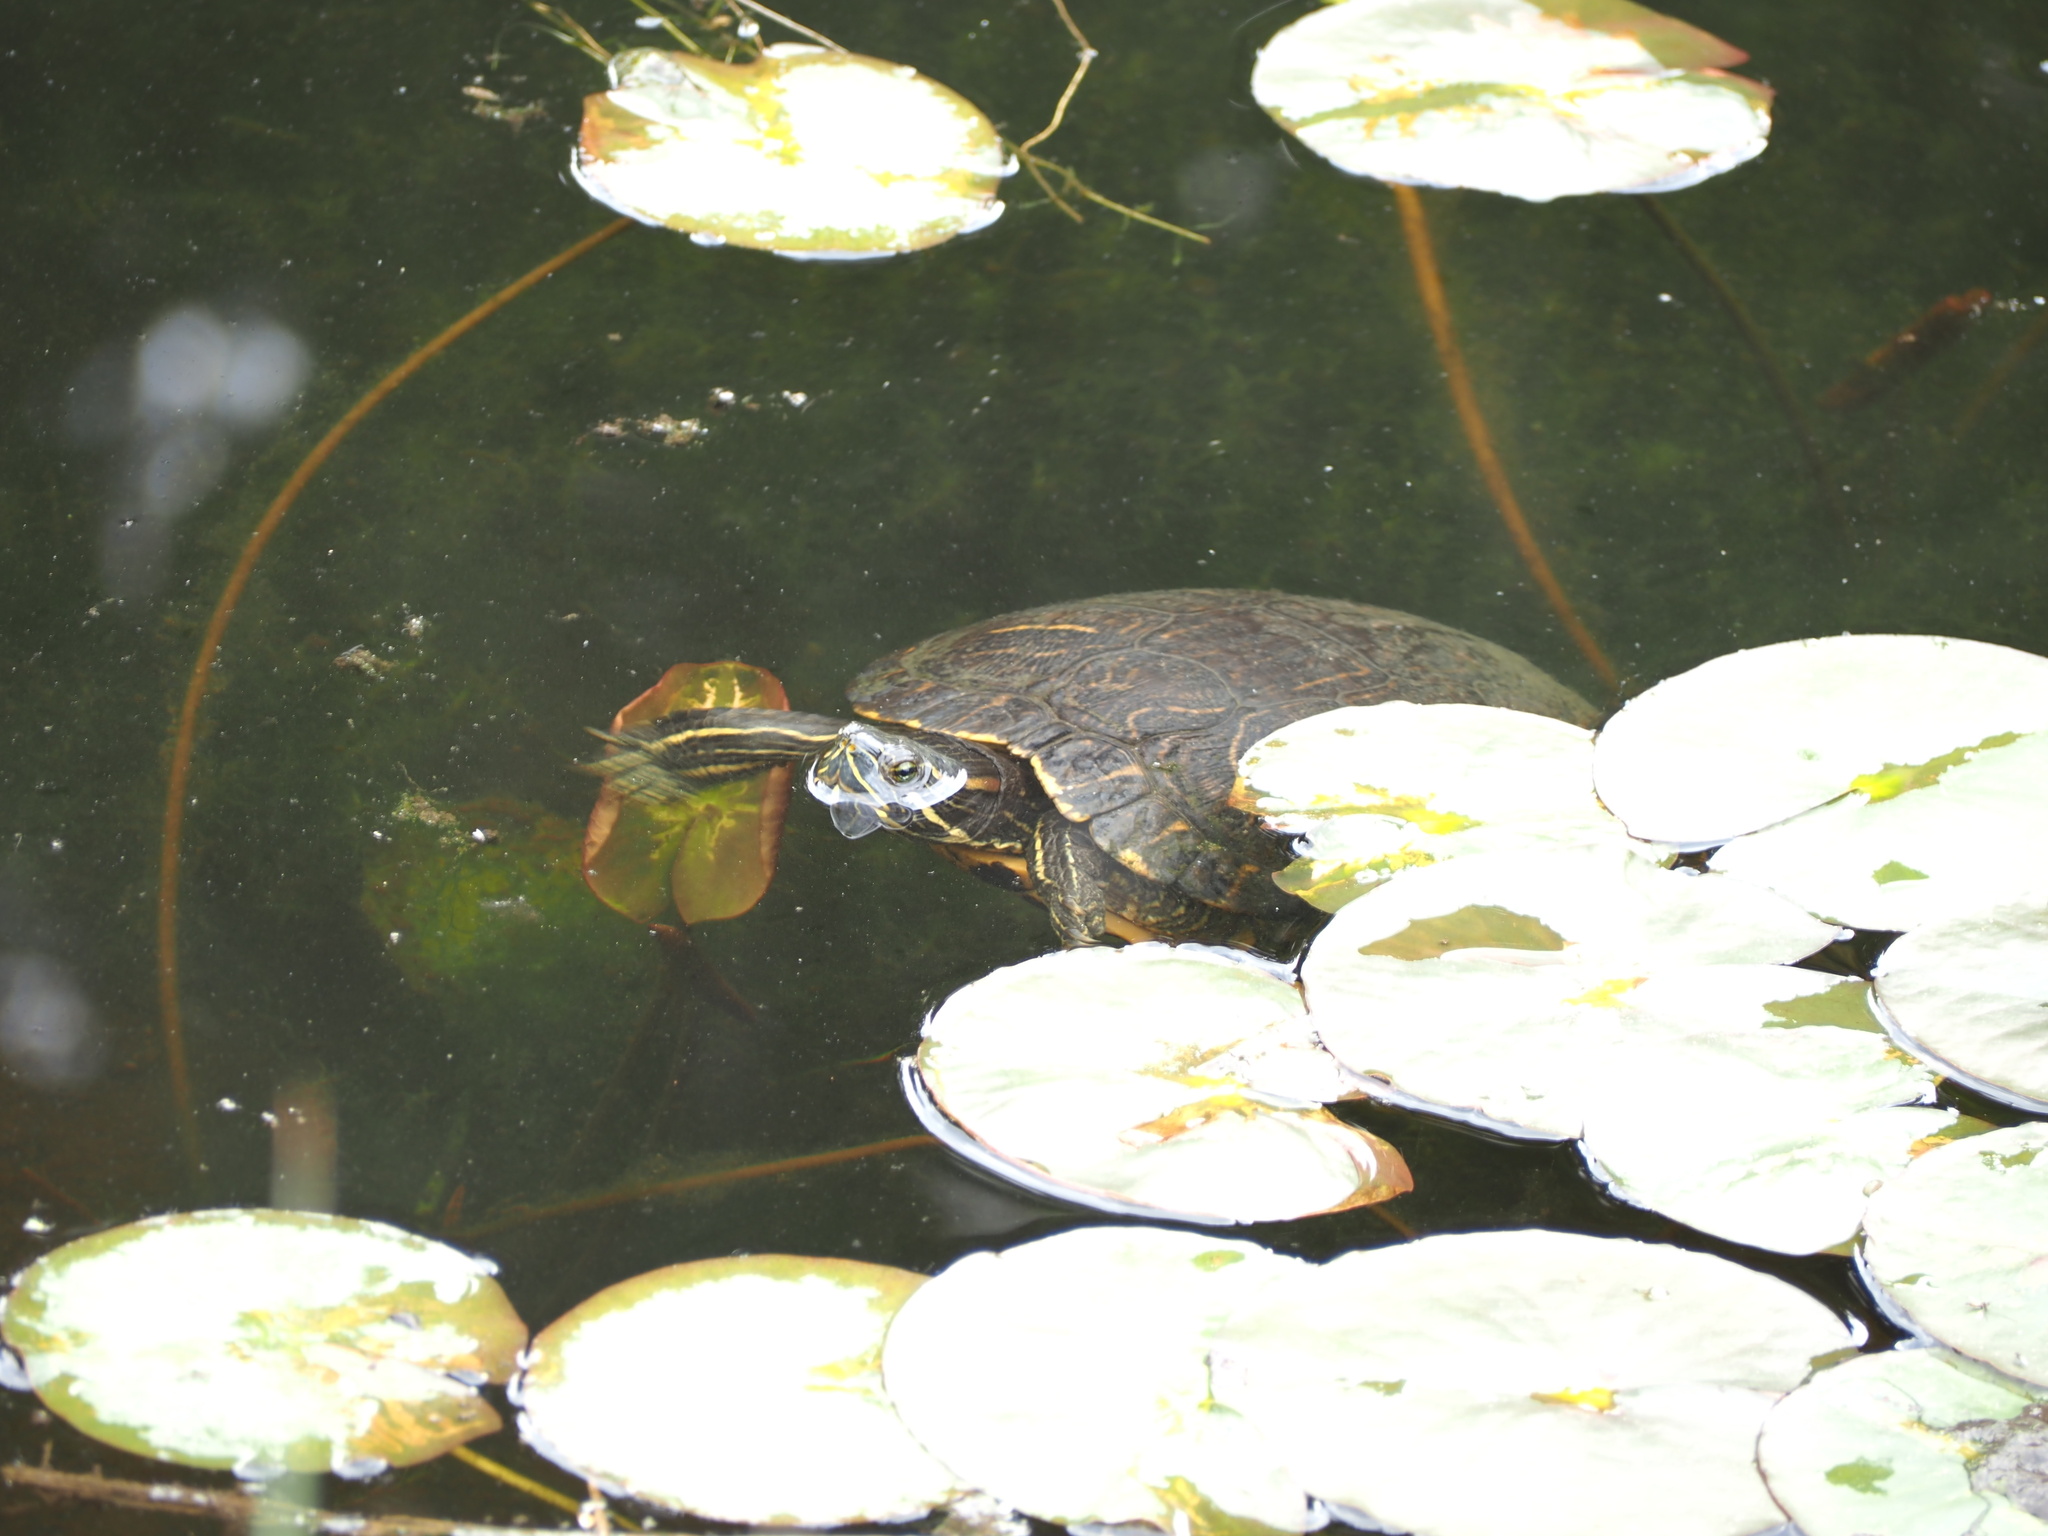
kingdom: Animalia
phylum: Chordata
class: Testudines
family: Emydidae
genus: Trachemys
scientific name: Trachemys scripta
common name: Slider
